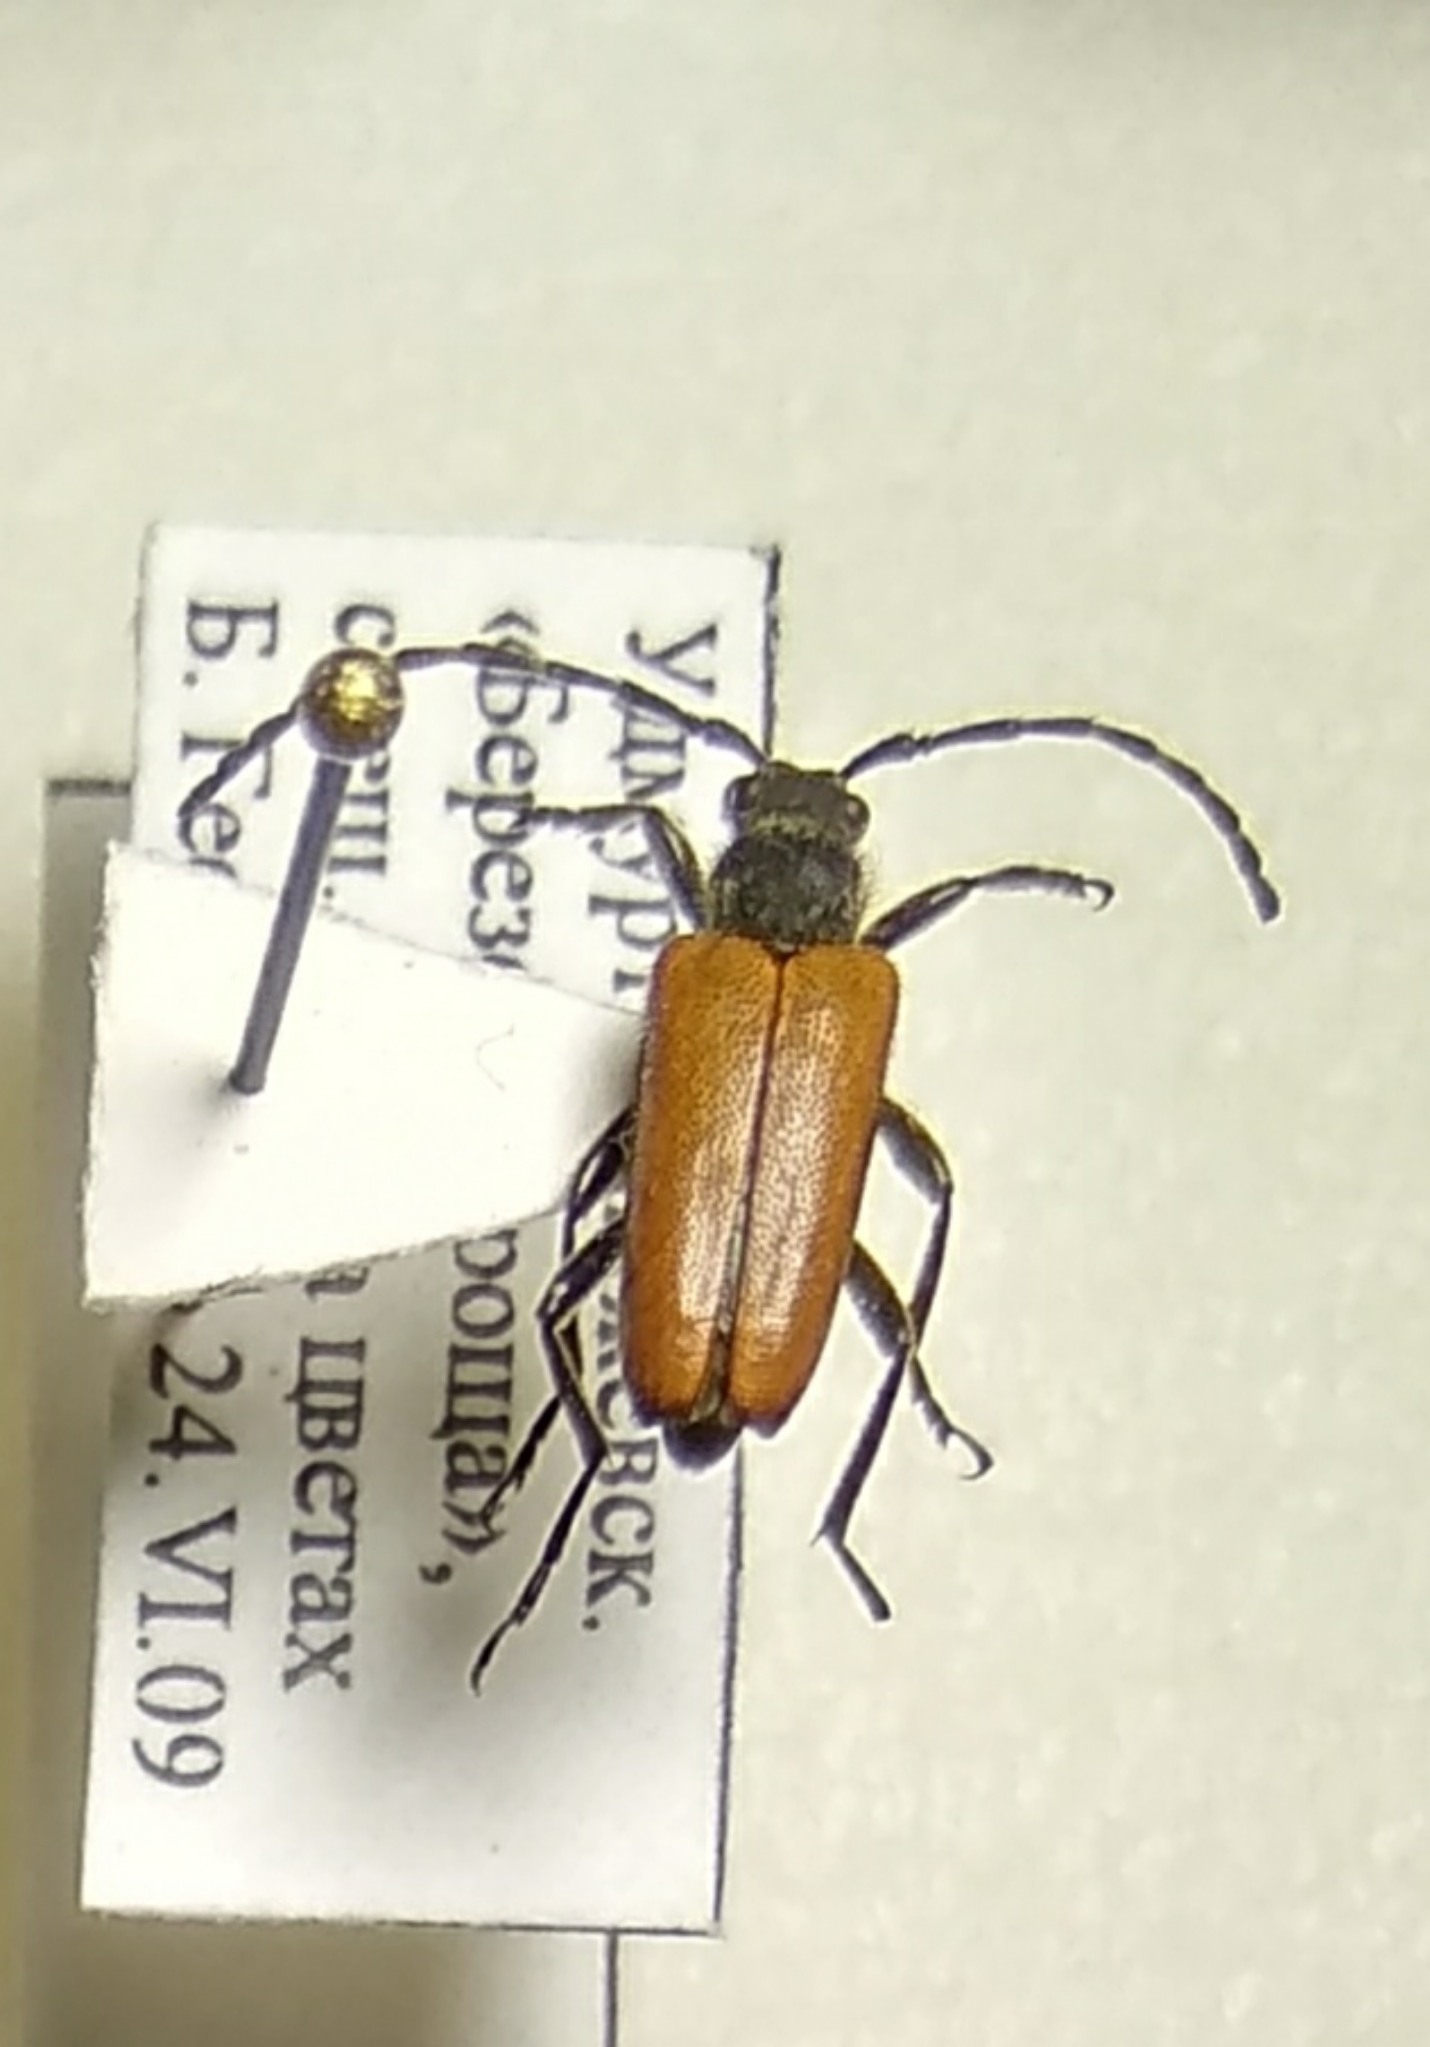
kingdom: Animalia
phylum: Arthropoda
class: Insecta
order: Coleoptera
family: Cerambycidae
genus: Paracorymbia
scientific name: Paracorymbia maculicornis
